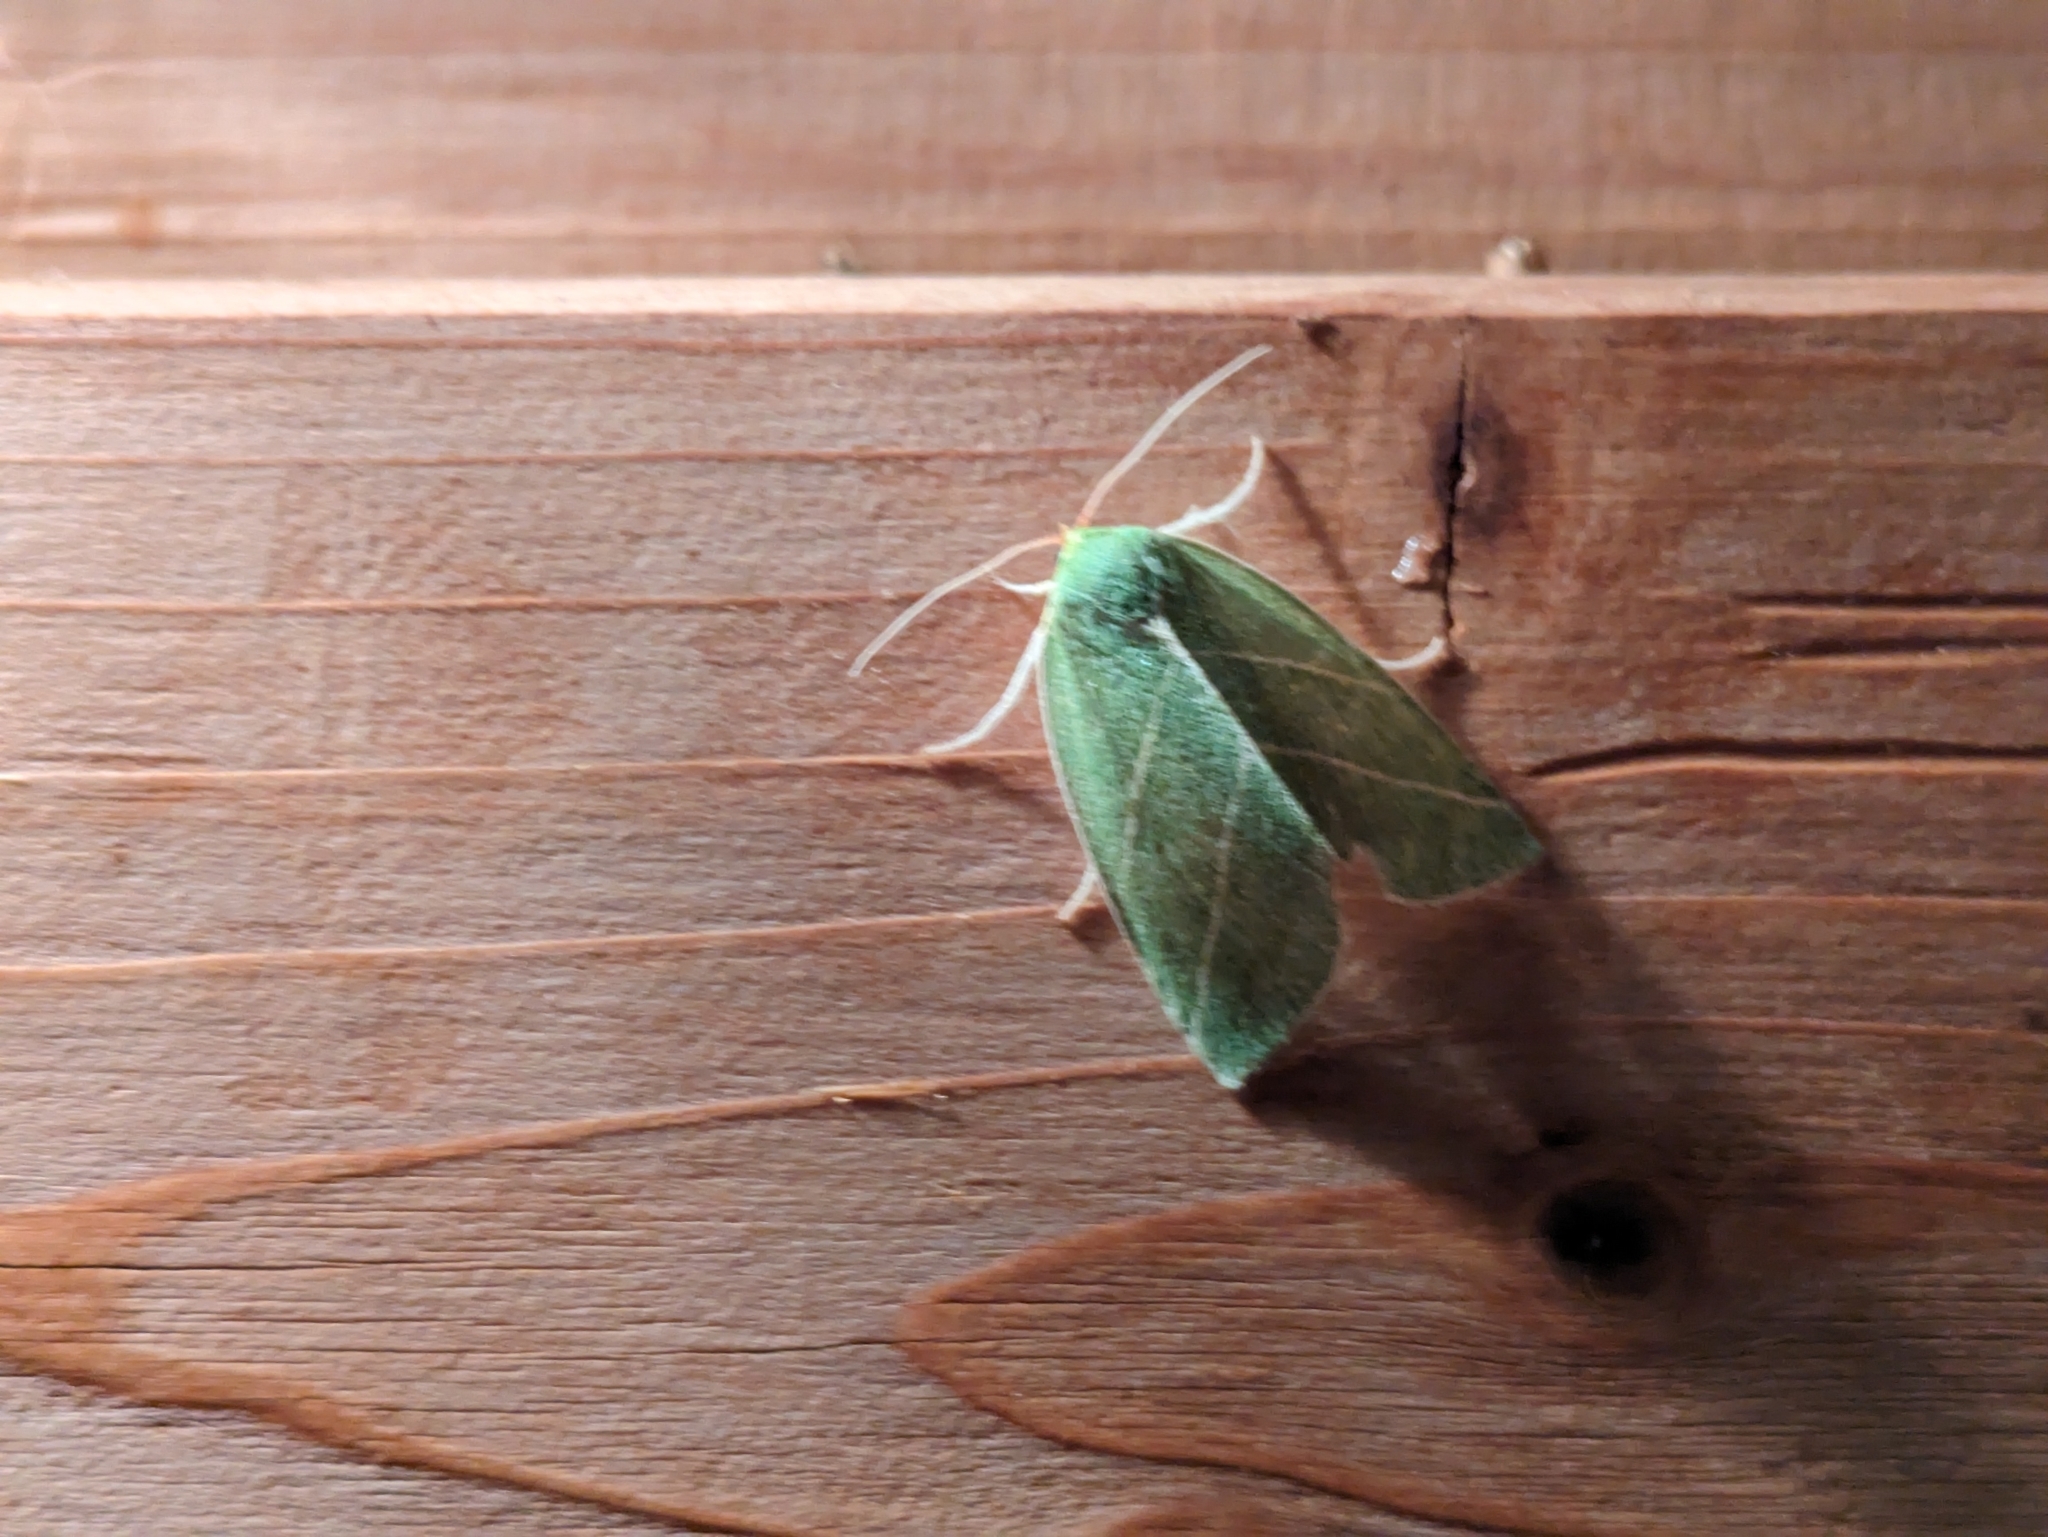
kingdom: Animalia
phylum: Arthropoda
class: Insecta
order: Lepidoptera
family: Nolidae
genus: Bena
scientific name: Bena bicolorana
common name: Scarce silver-lines
